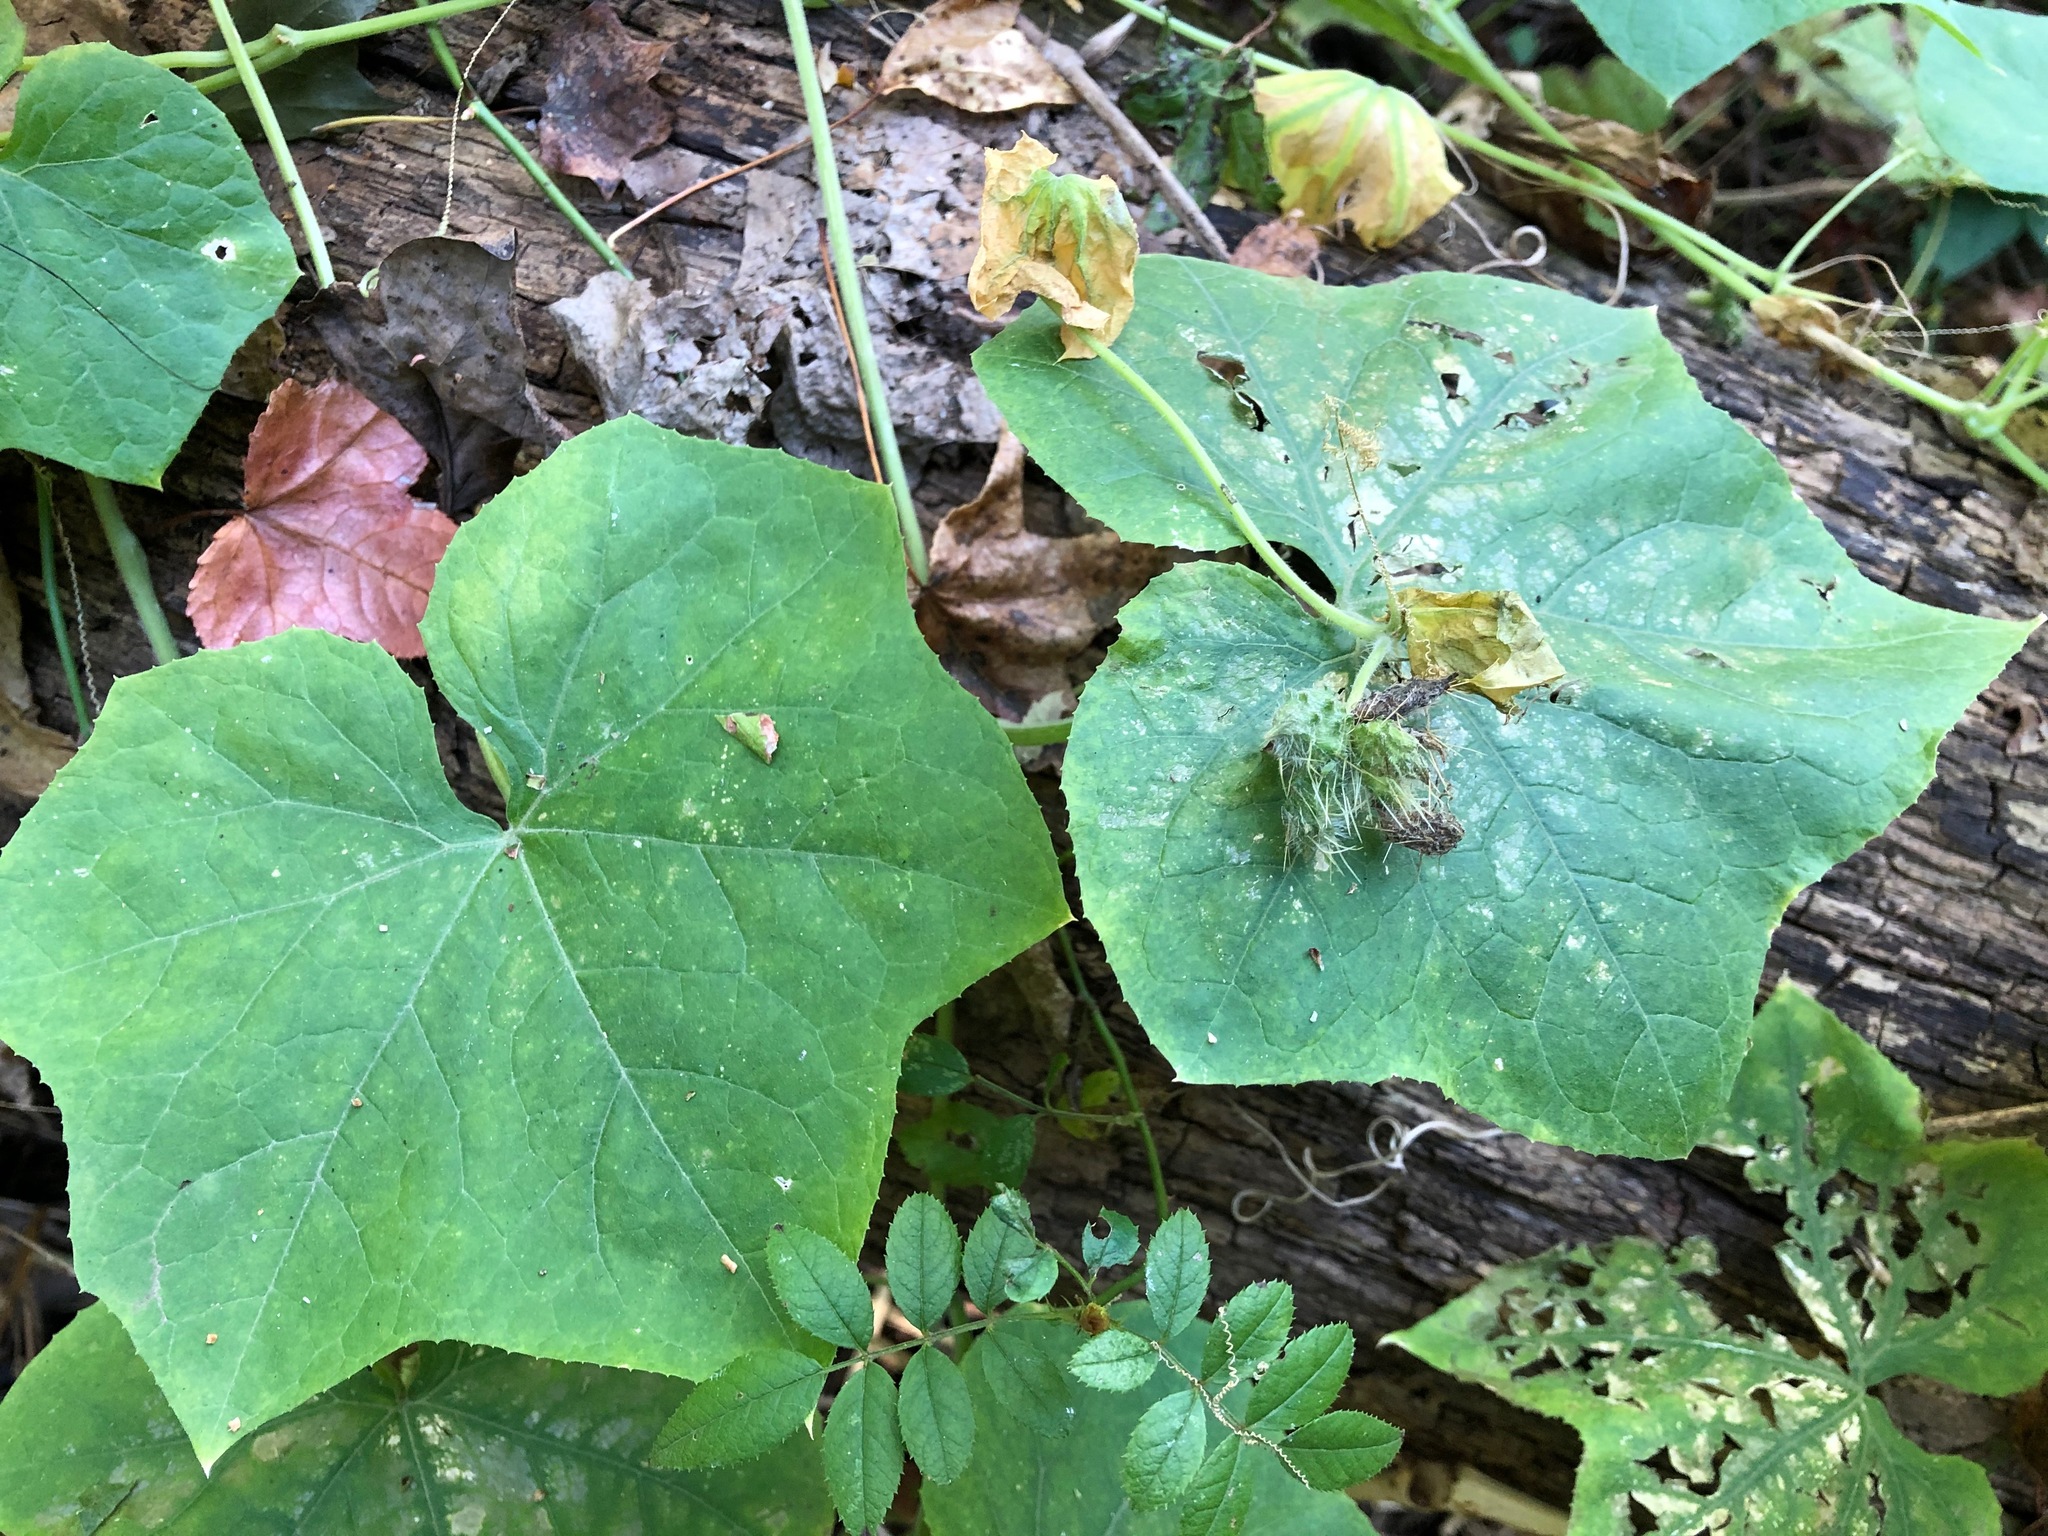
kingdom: Plantae
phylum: Tracheophyta
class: Magnoliopsida
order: Cucurbitales
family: Cucurbitaceae
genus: Sicyos
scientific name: Sicyos angulatus
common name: Angled burr cucumber
